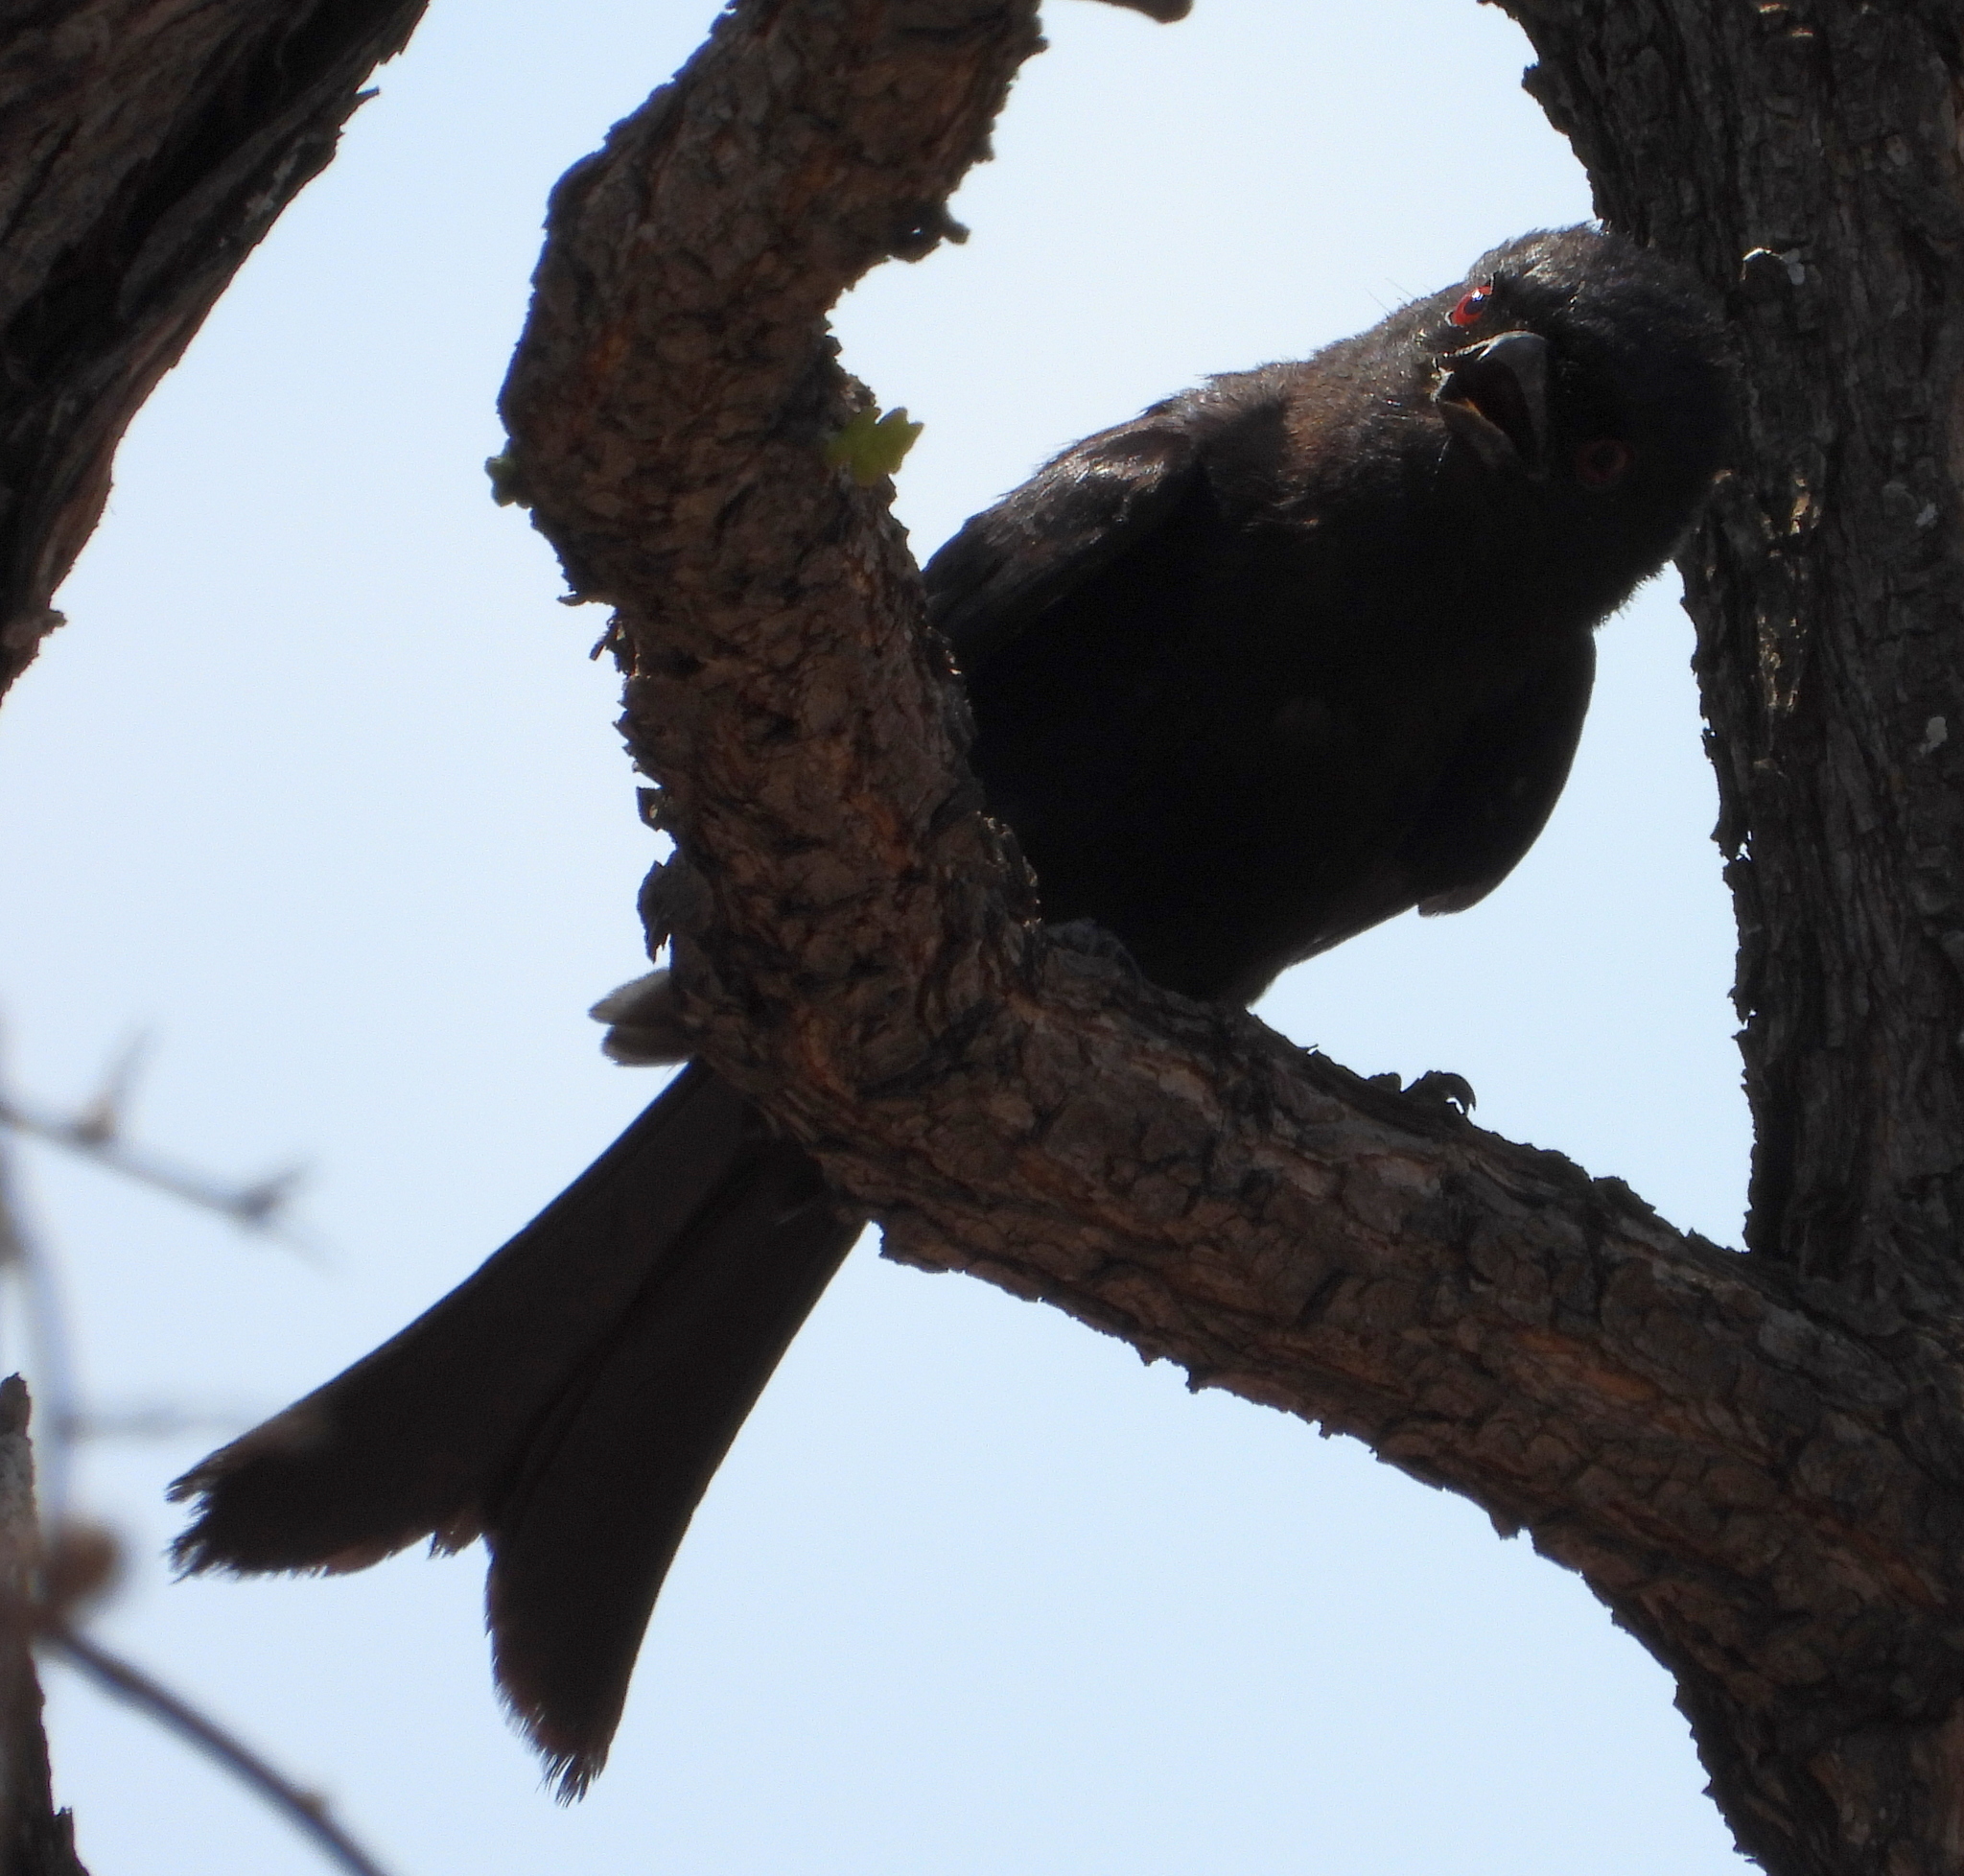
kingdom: Animalia
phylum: Chordata
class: Aves
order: Passeriformes
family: Dicruridae
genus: Dicrurus
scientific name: Dicrurus adsimilis
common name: Fork-tailed drongo
